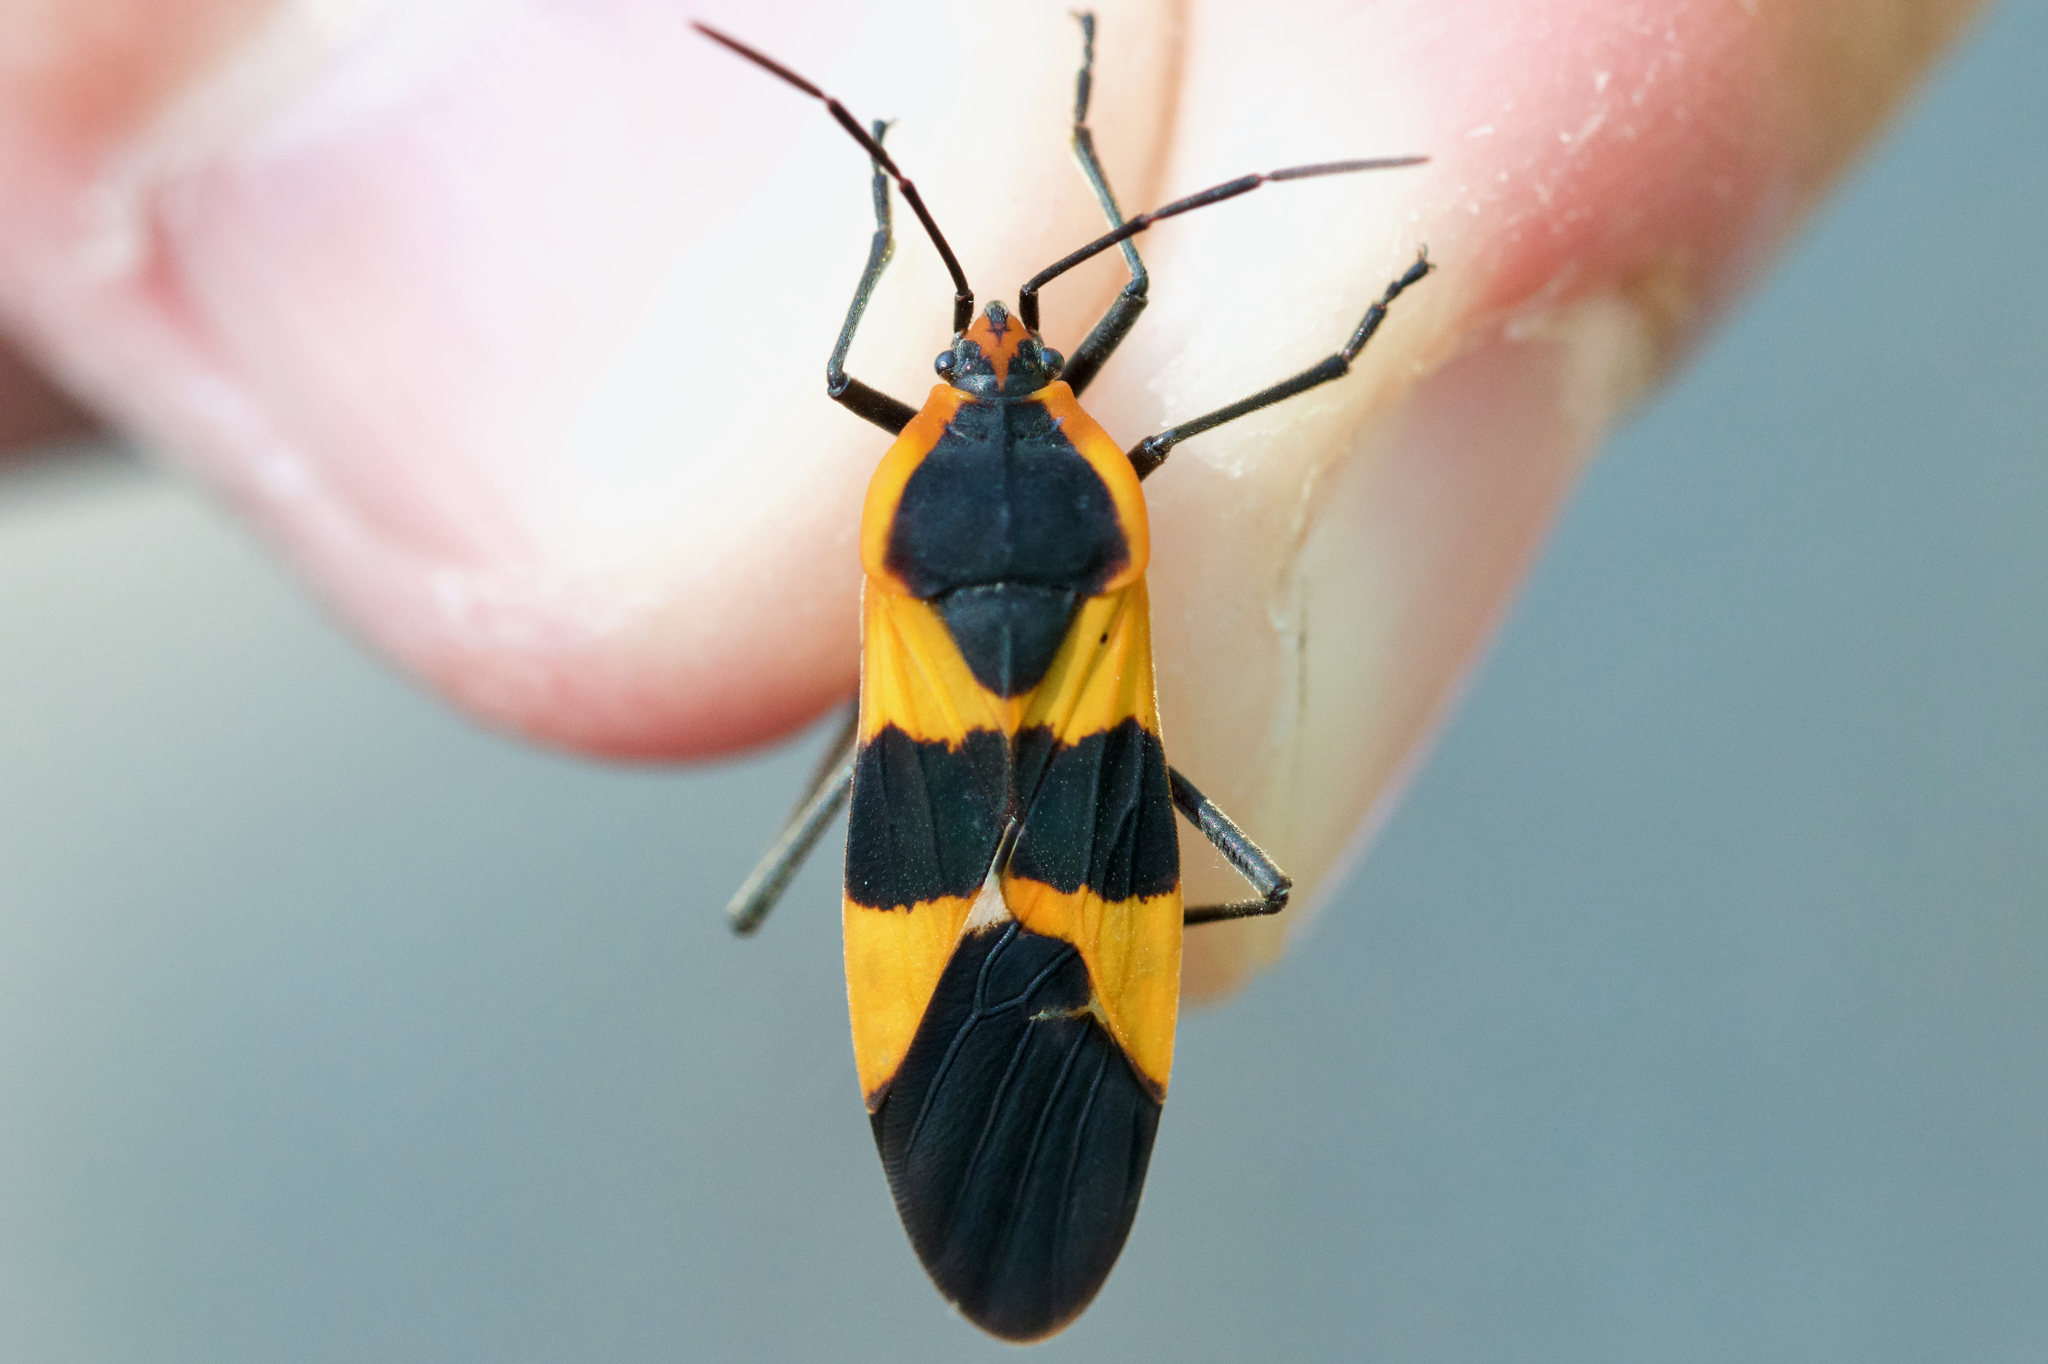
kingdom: Animalia
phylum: Arthropoda
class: Insecta
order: Hemiptera
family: Lygaeidae
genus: Oncopeltus
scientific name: Oncopeltus fasciatus
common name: Large milkweed bug
